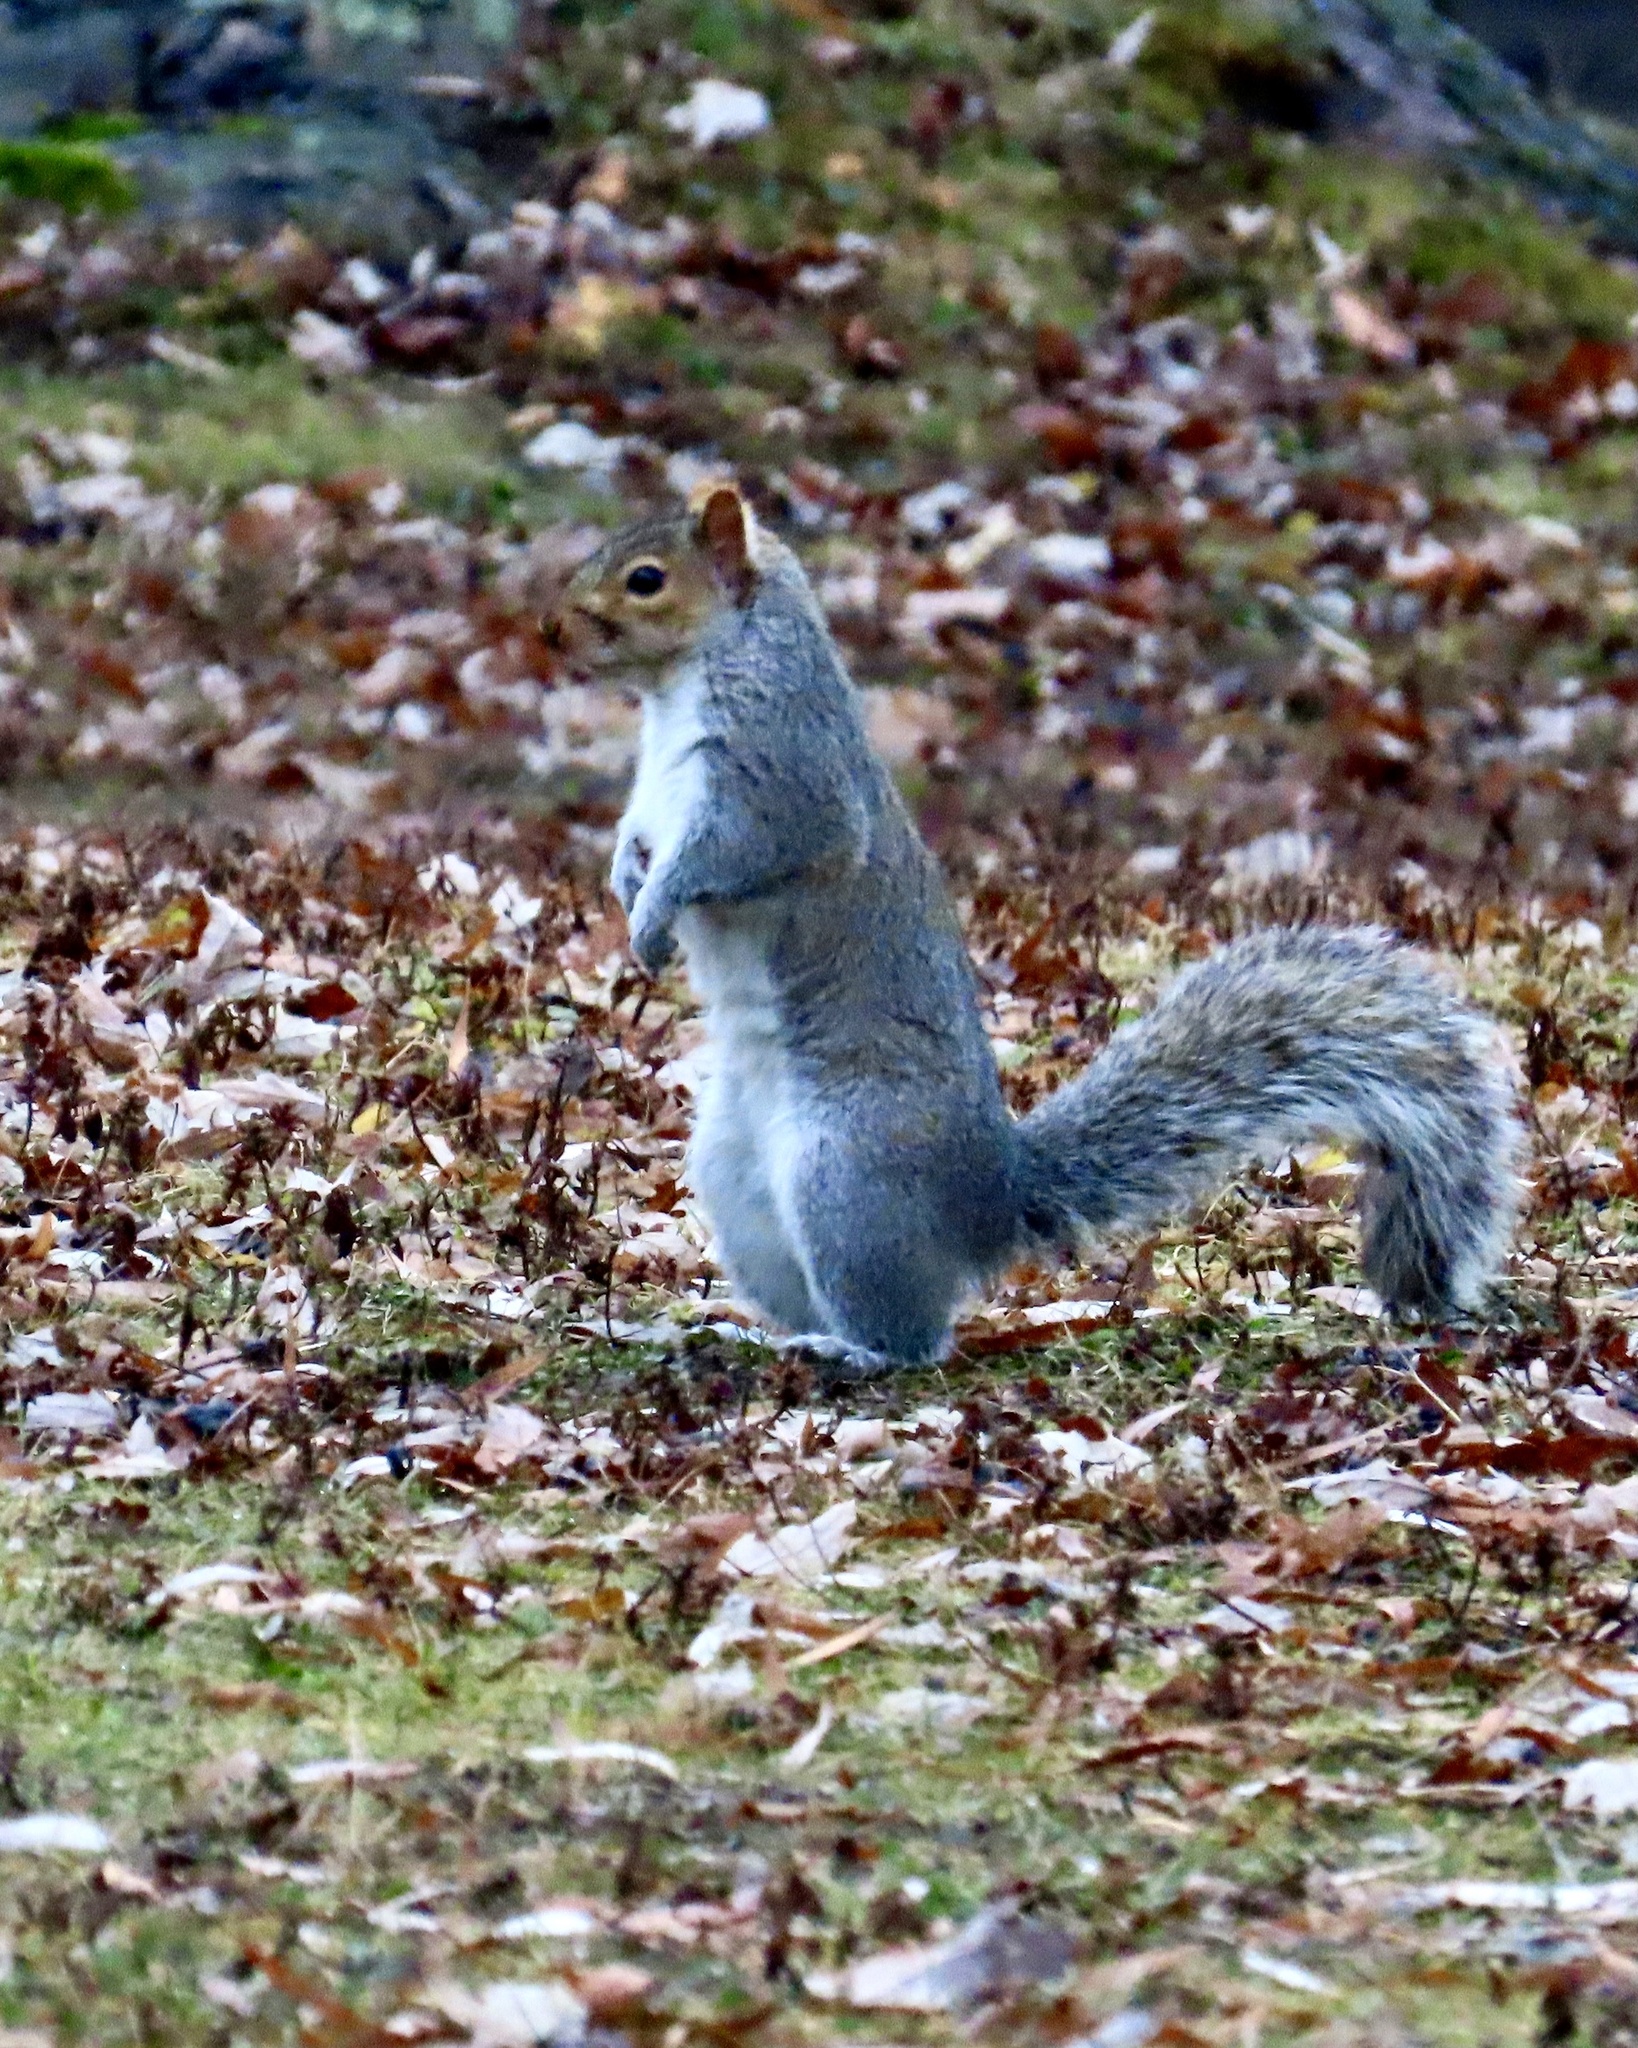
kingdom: Animalia
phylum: Chordata
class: Mammalia
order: Rodentia
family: Sciuridae
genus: Sciurus
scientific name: Sciurus carolinensis
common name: Eastern gray squirrel
